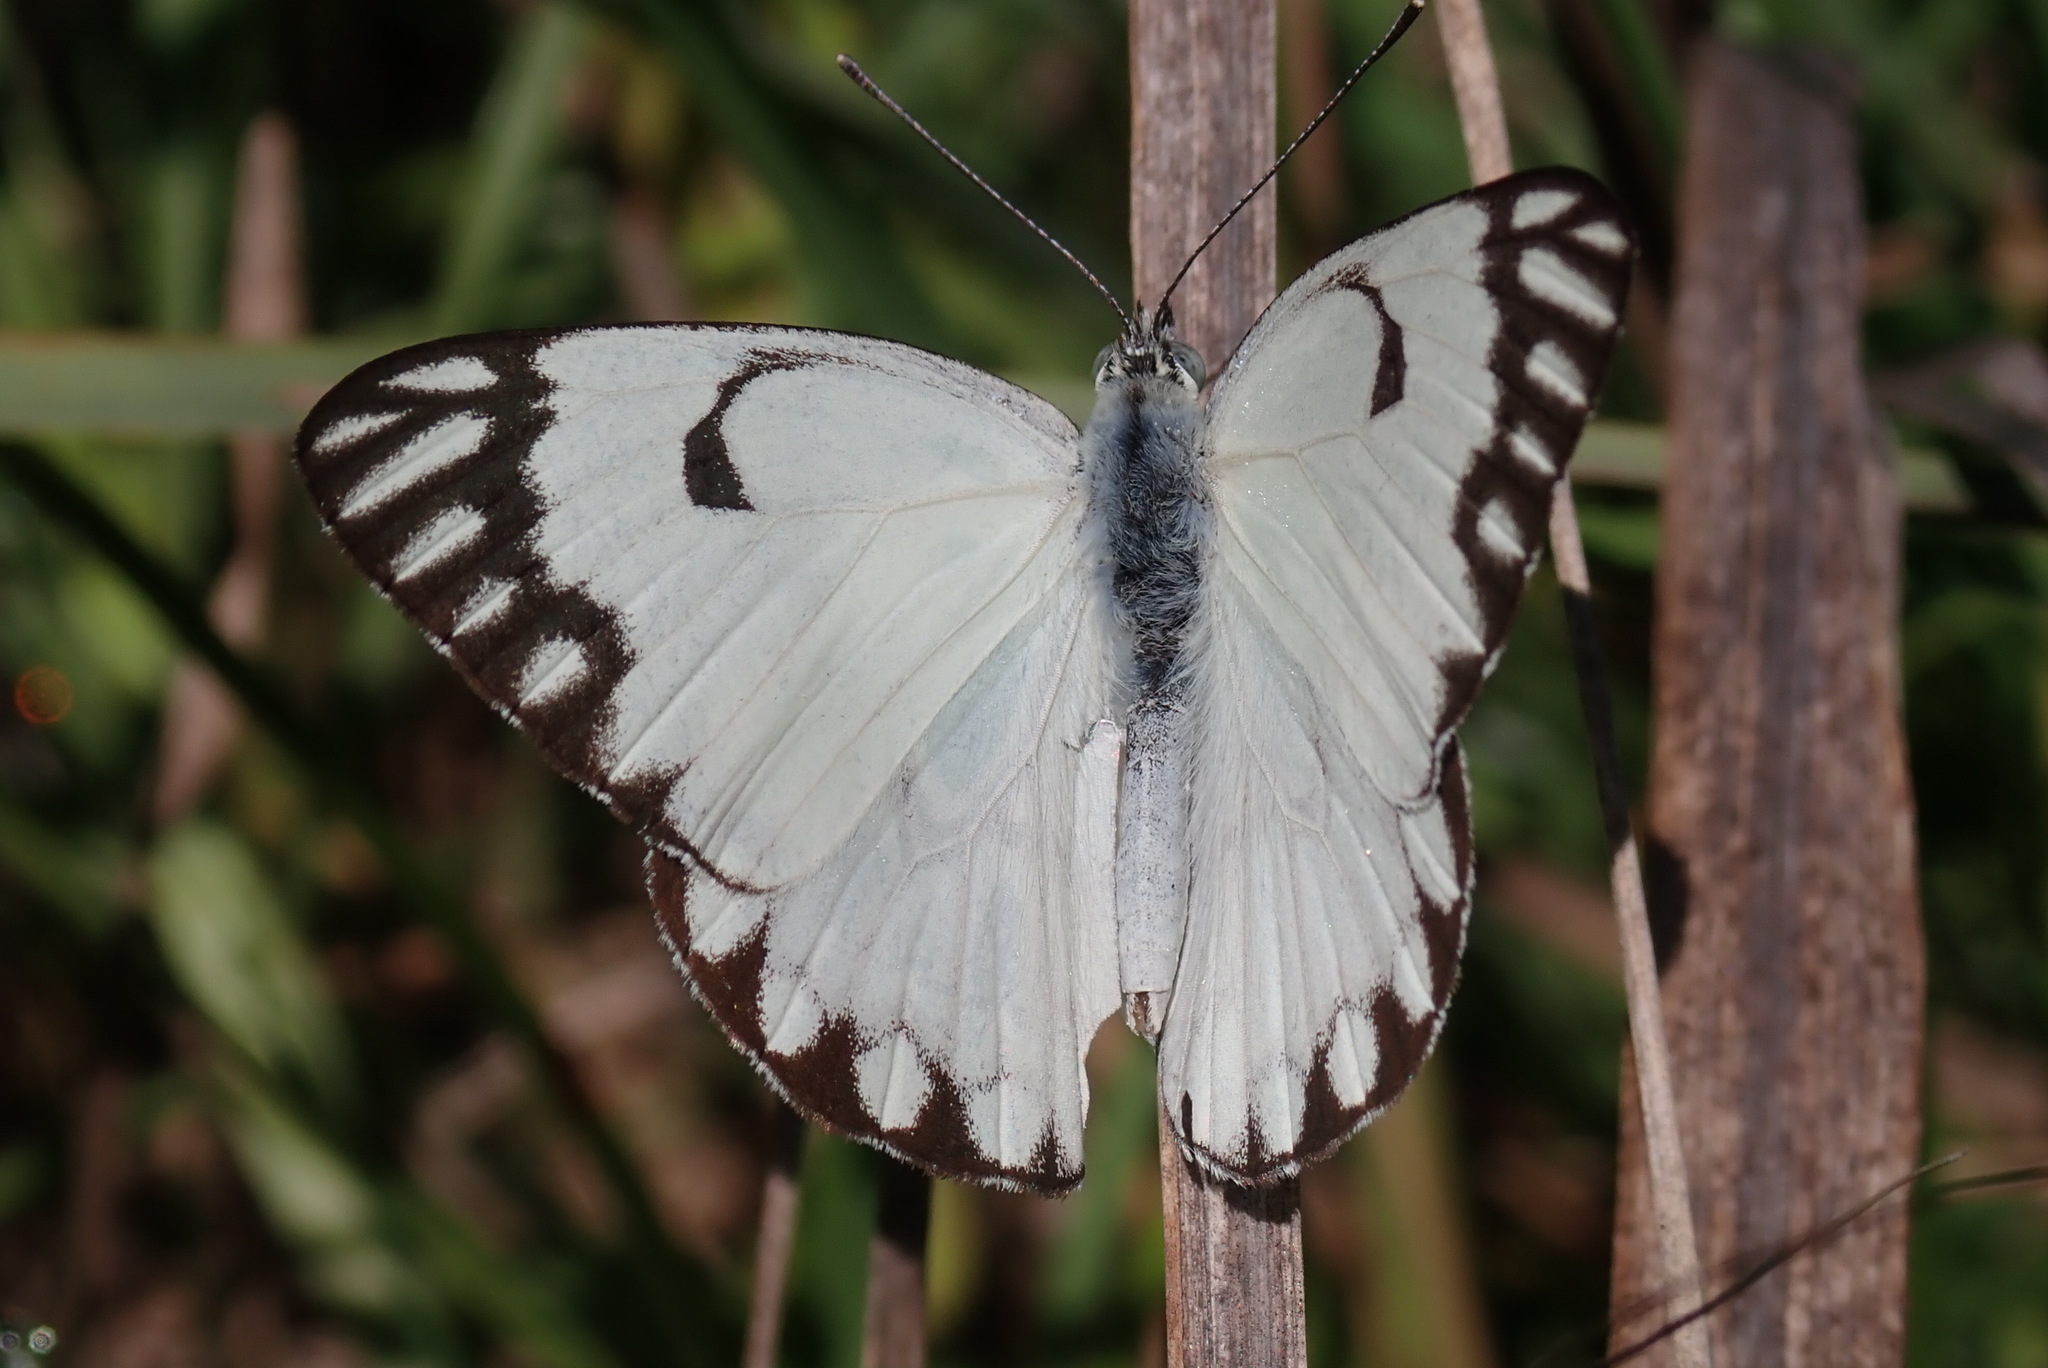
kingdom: Animalia
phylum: Arthropoda
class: Insecta
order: Lepidoptera
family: Pieridae
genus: Belenois
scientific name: Belenois aurota
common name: Brown-veined white
